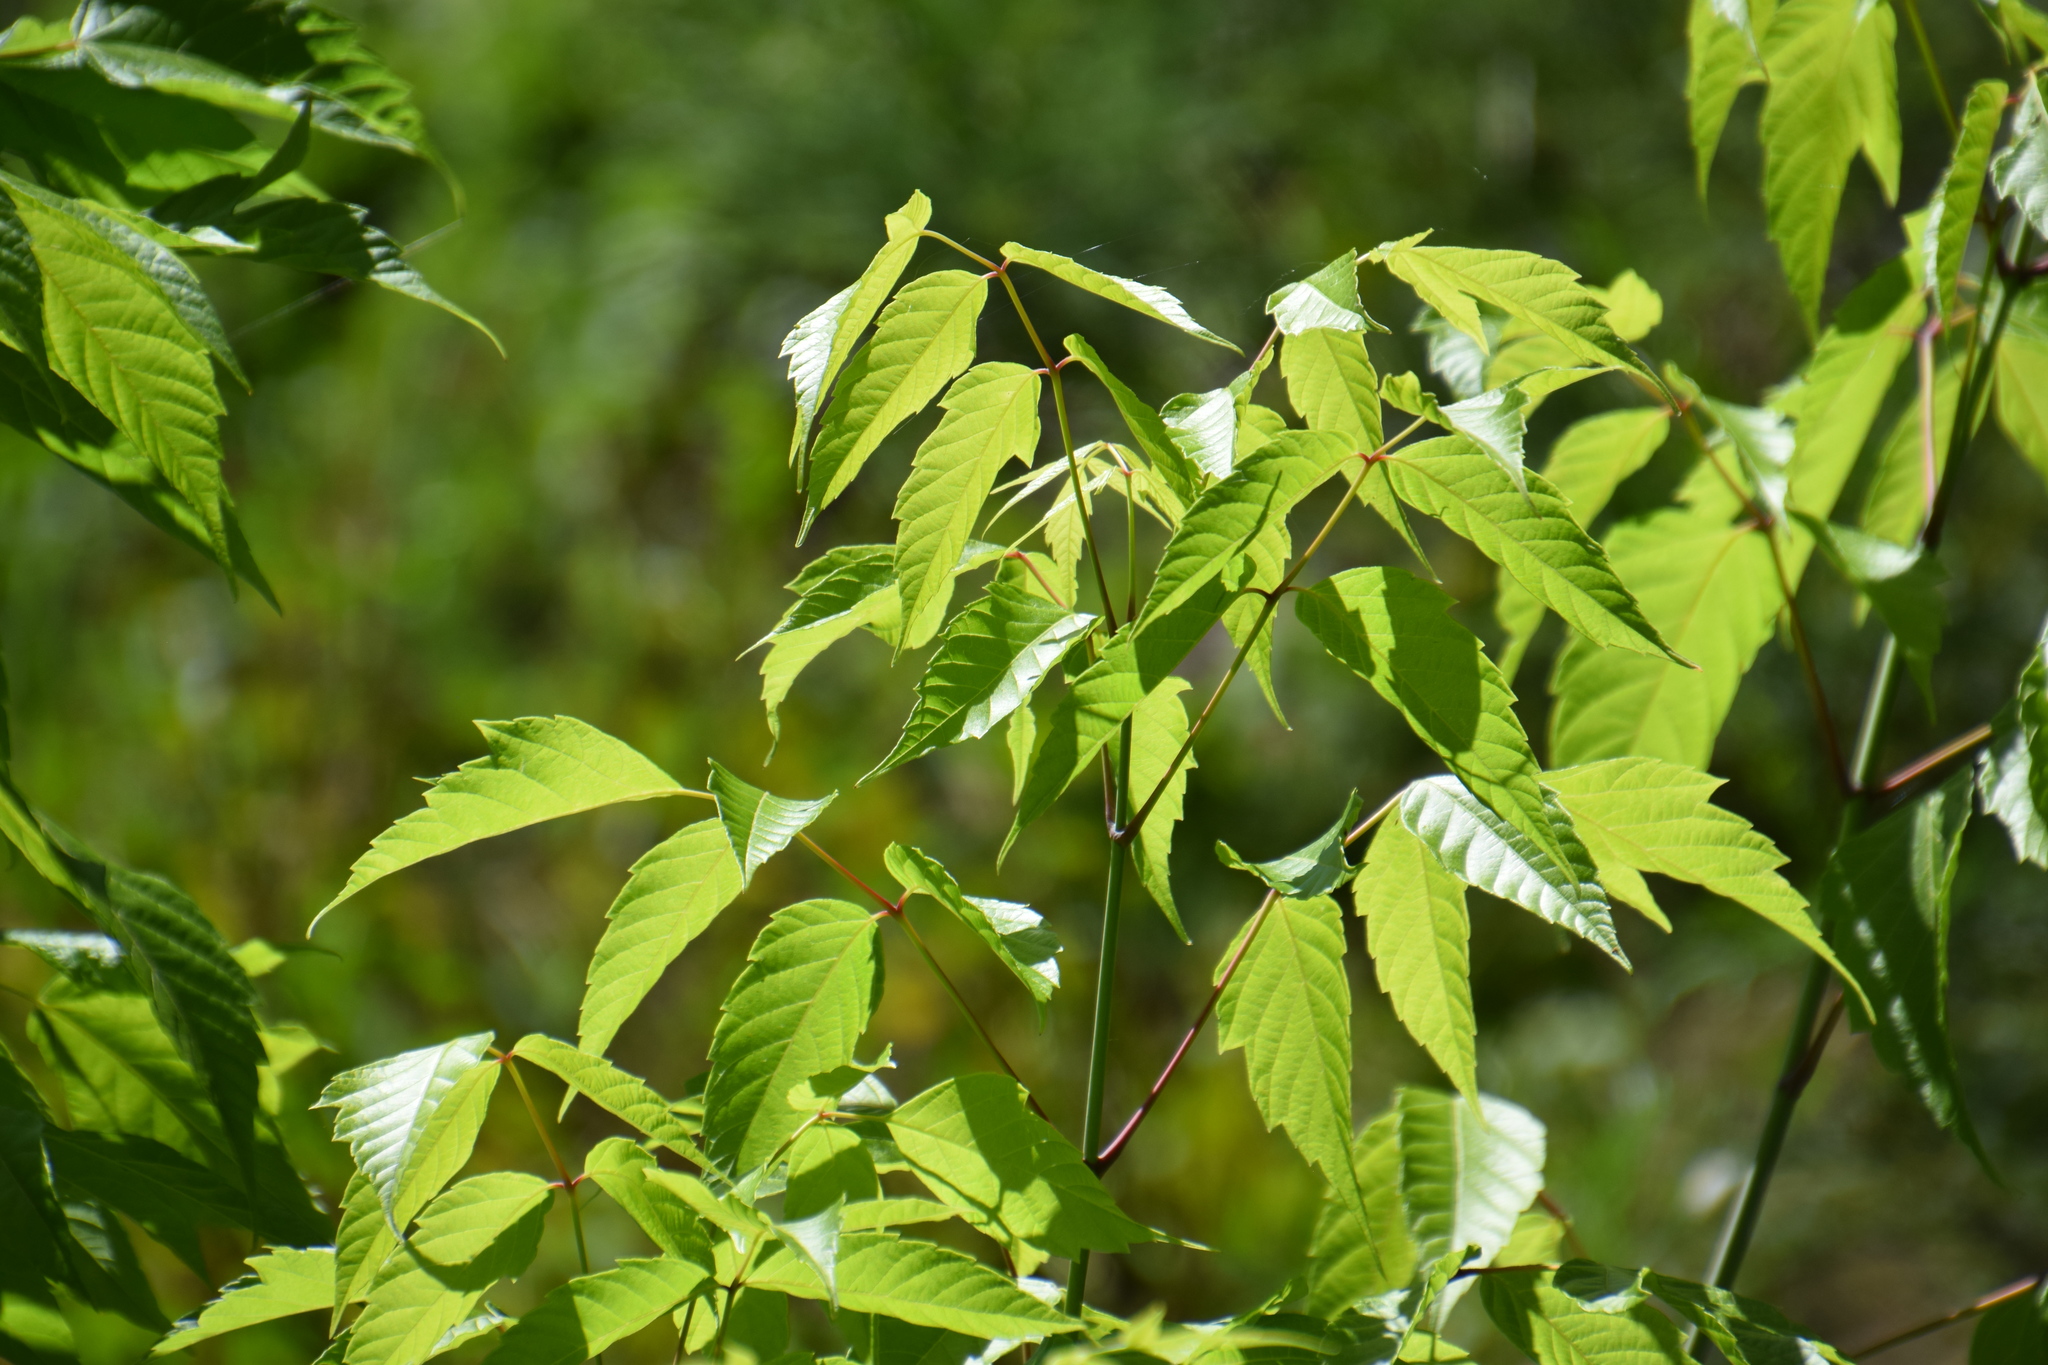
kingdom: Plantae
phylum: Tracheophyta
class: Magnoliopsida
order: Sapindales
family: Sapindaceae
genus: Acer
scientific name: Acer negundo
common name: Ashleaf maple
